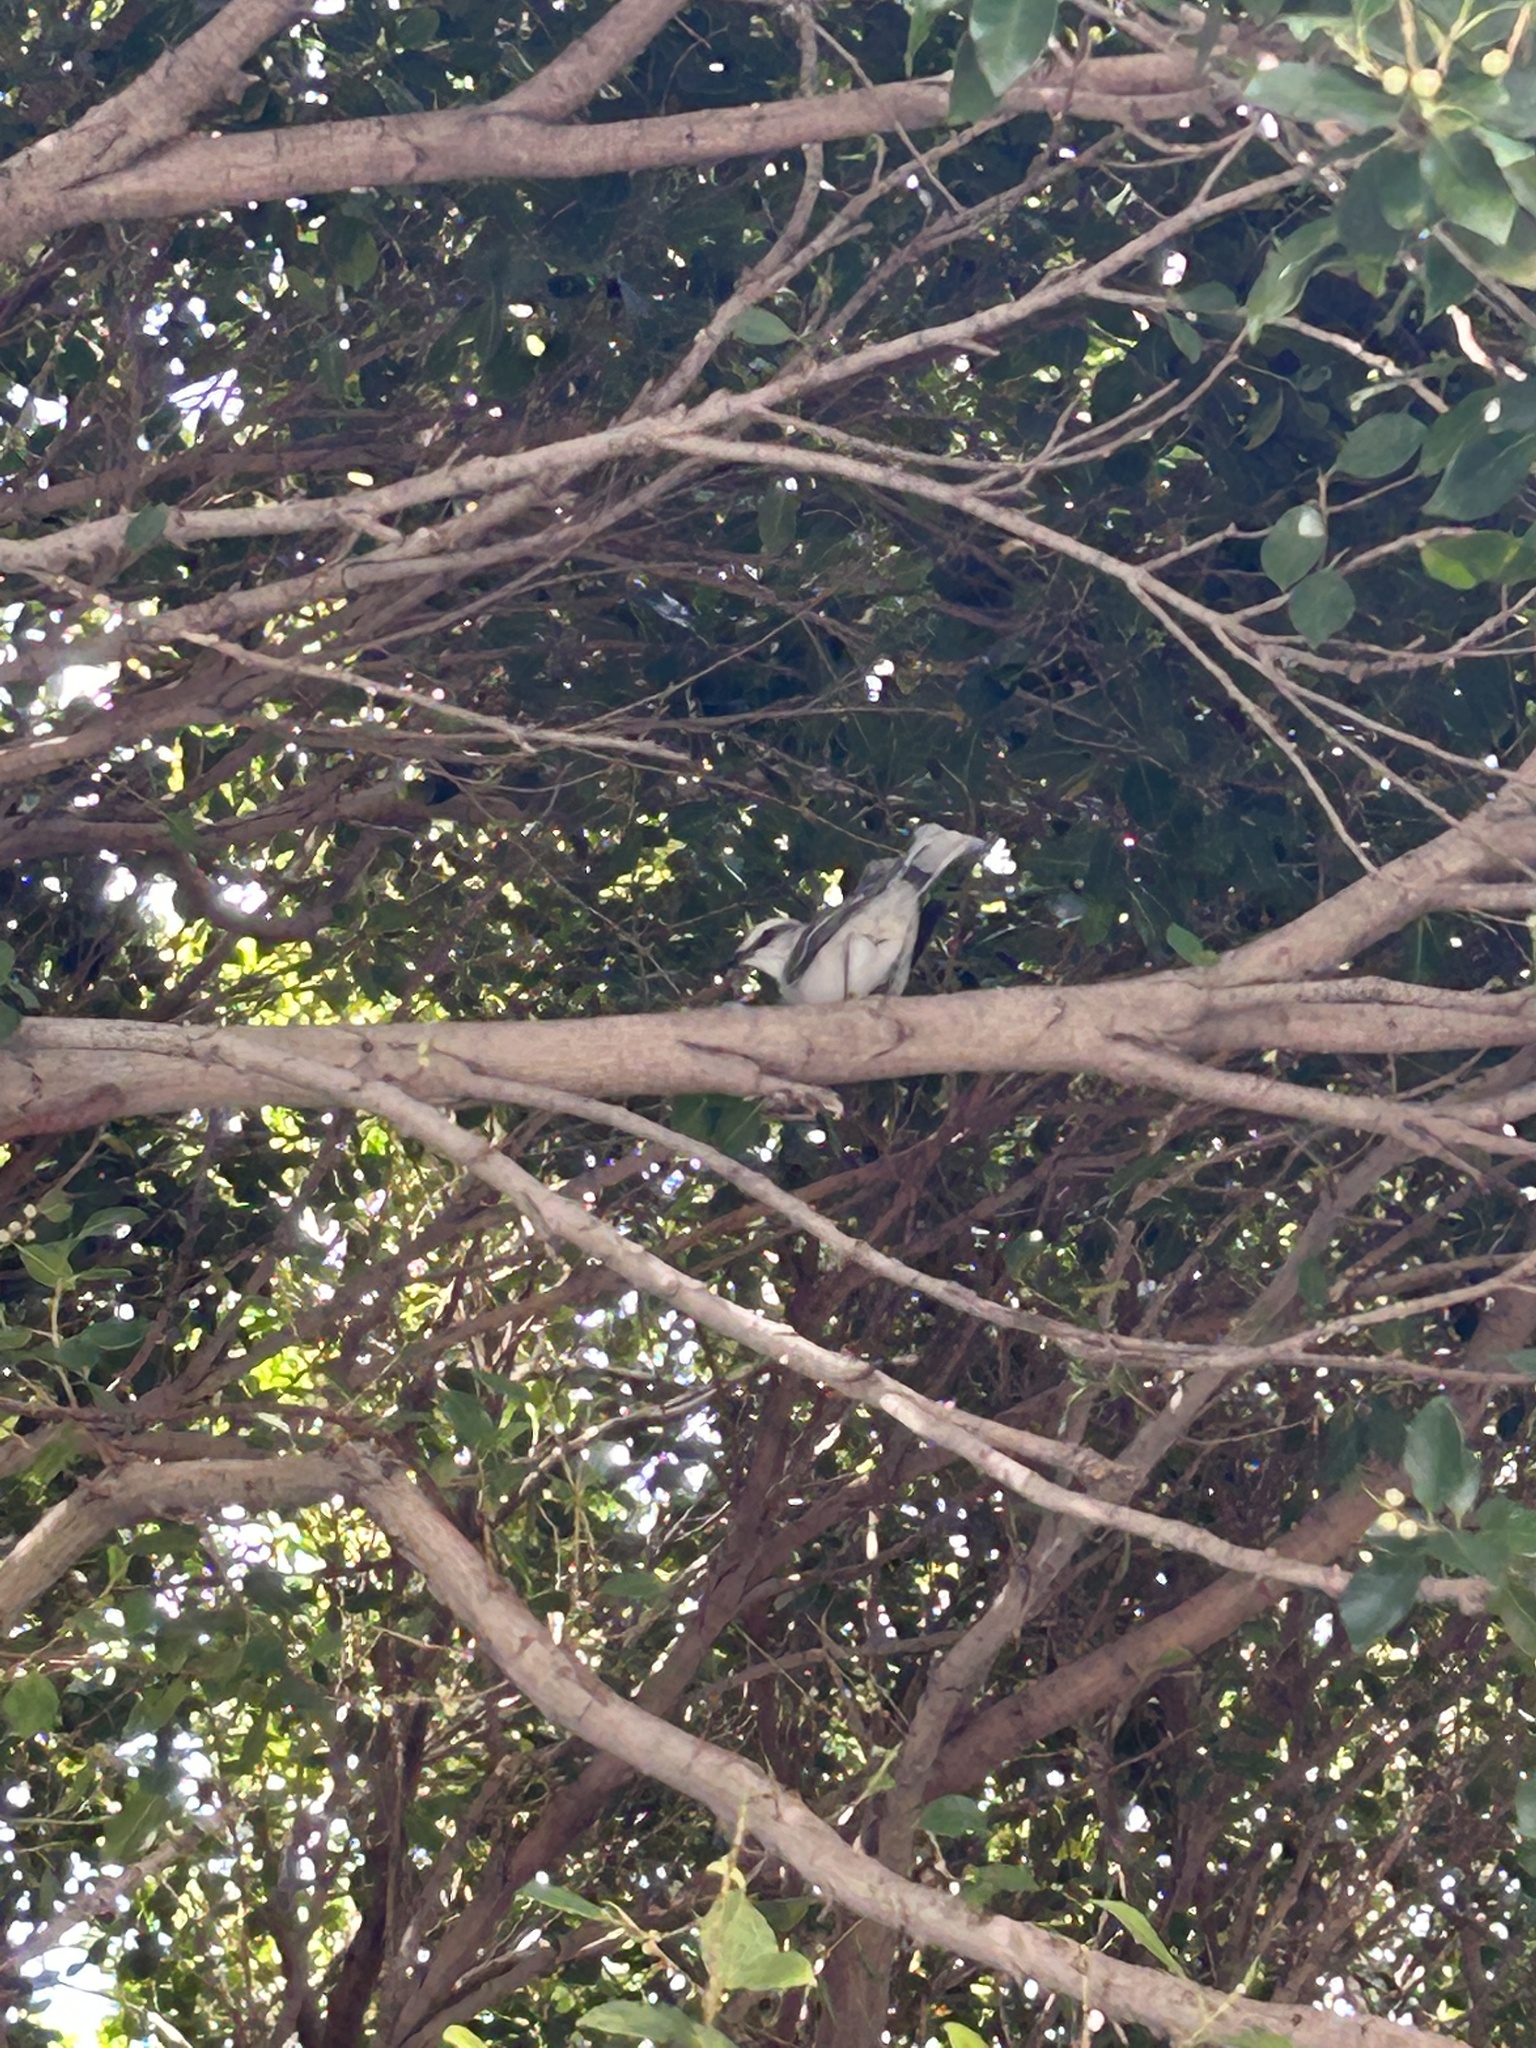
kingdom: Animalia
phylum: Chordata
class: Aves
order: Passeriformes
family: Mimidae
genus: Mimus
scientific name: Mimus gilvus
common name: Tropical mockingbird
